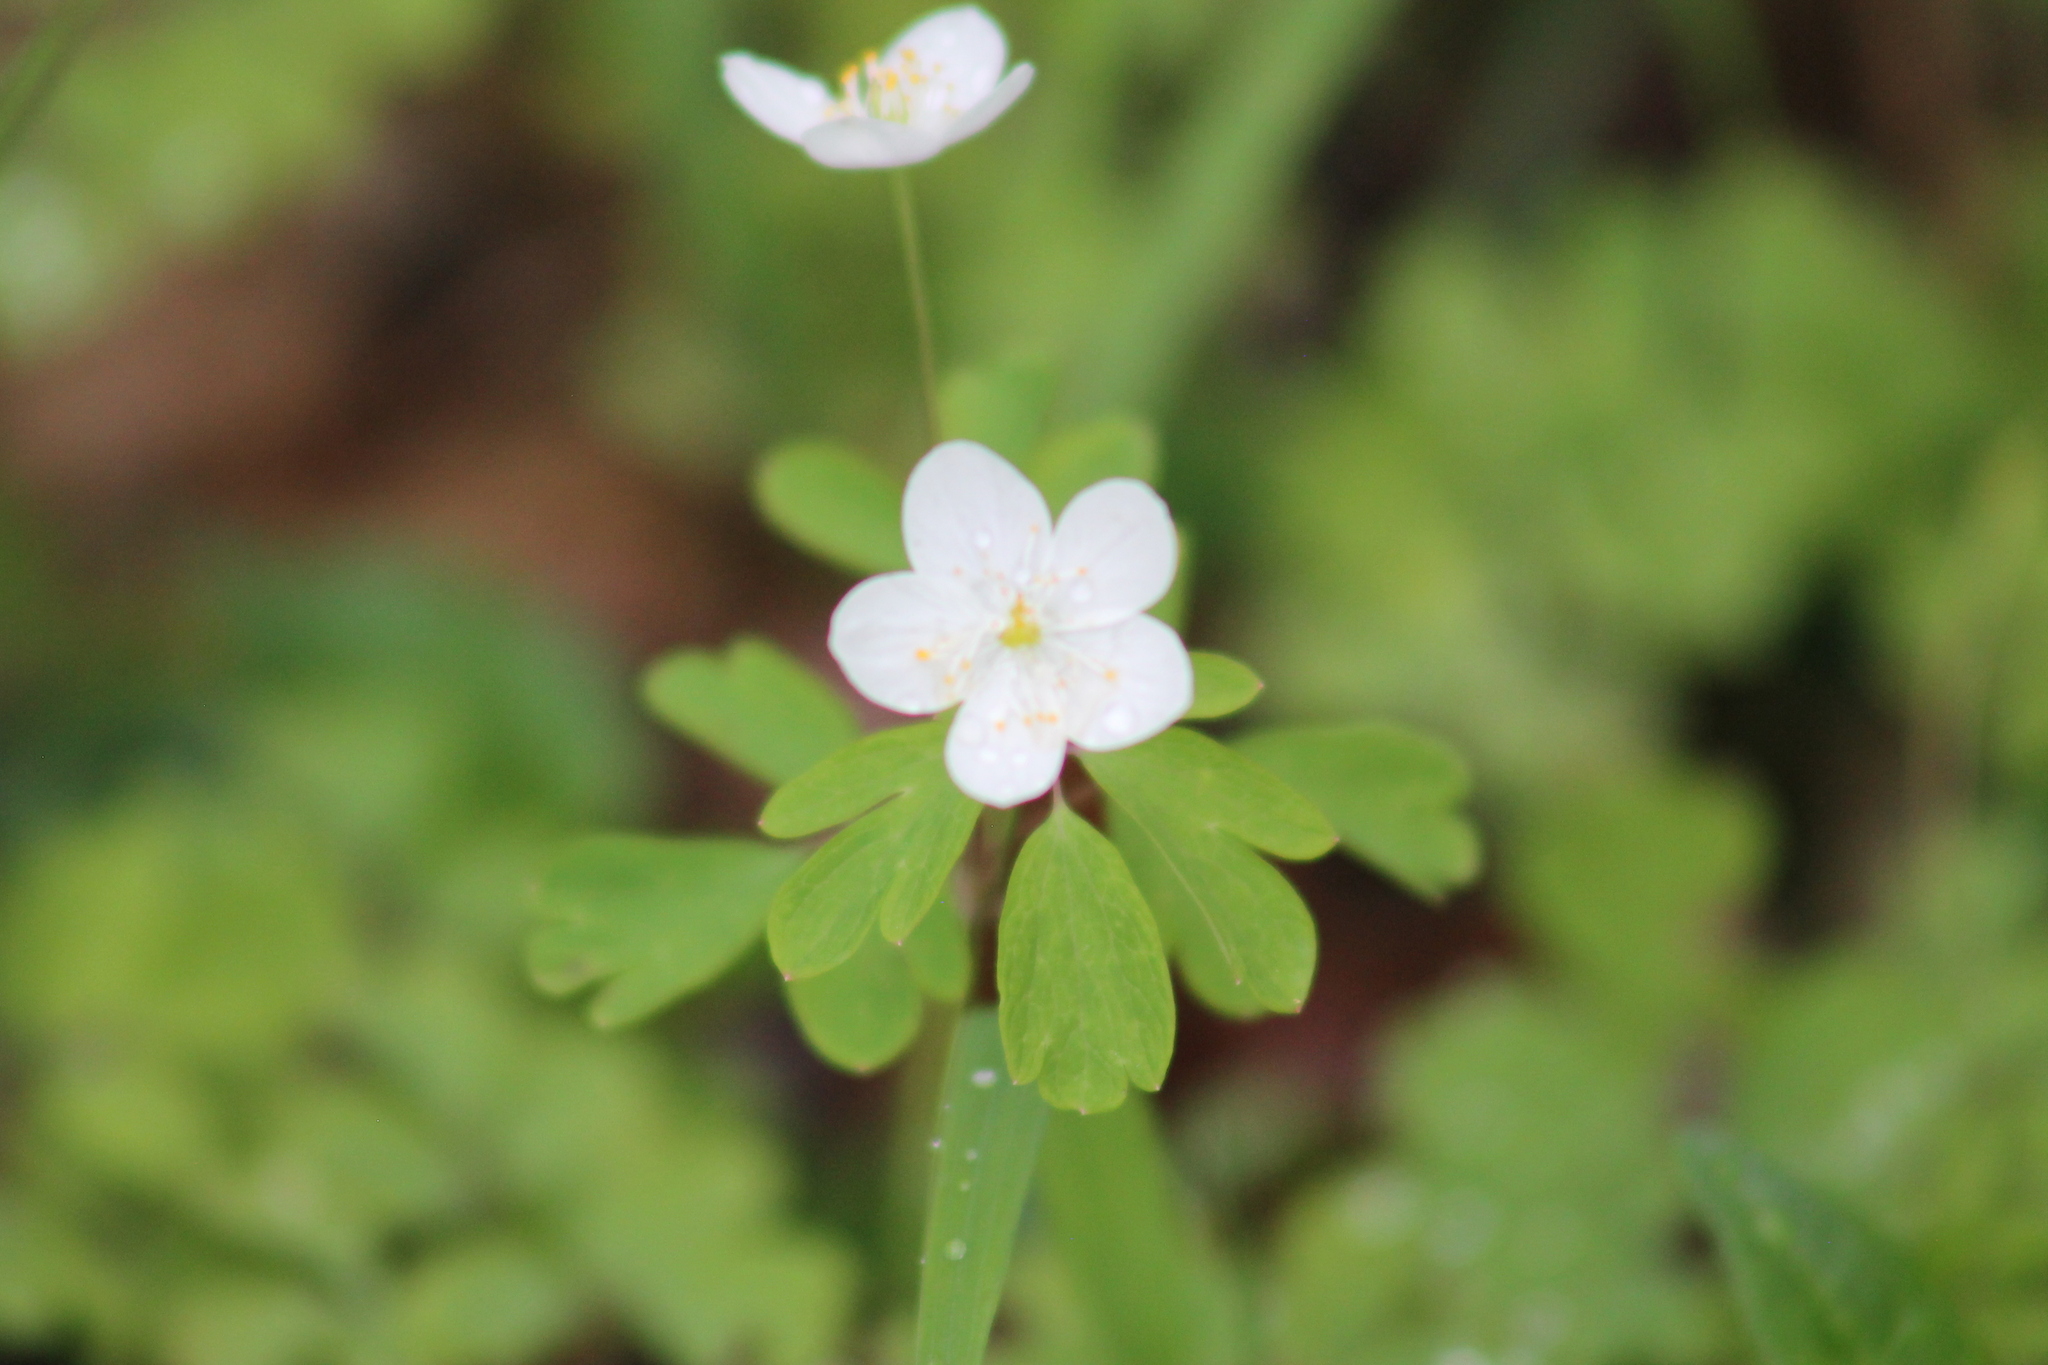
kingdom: Plantae
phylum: Tracheophyta
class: Magnoliopsida
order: Ranunculales
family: Ranunculaceae
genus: Enemion
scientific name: Enemion biternatum
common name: Eastern false rue-anemone
